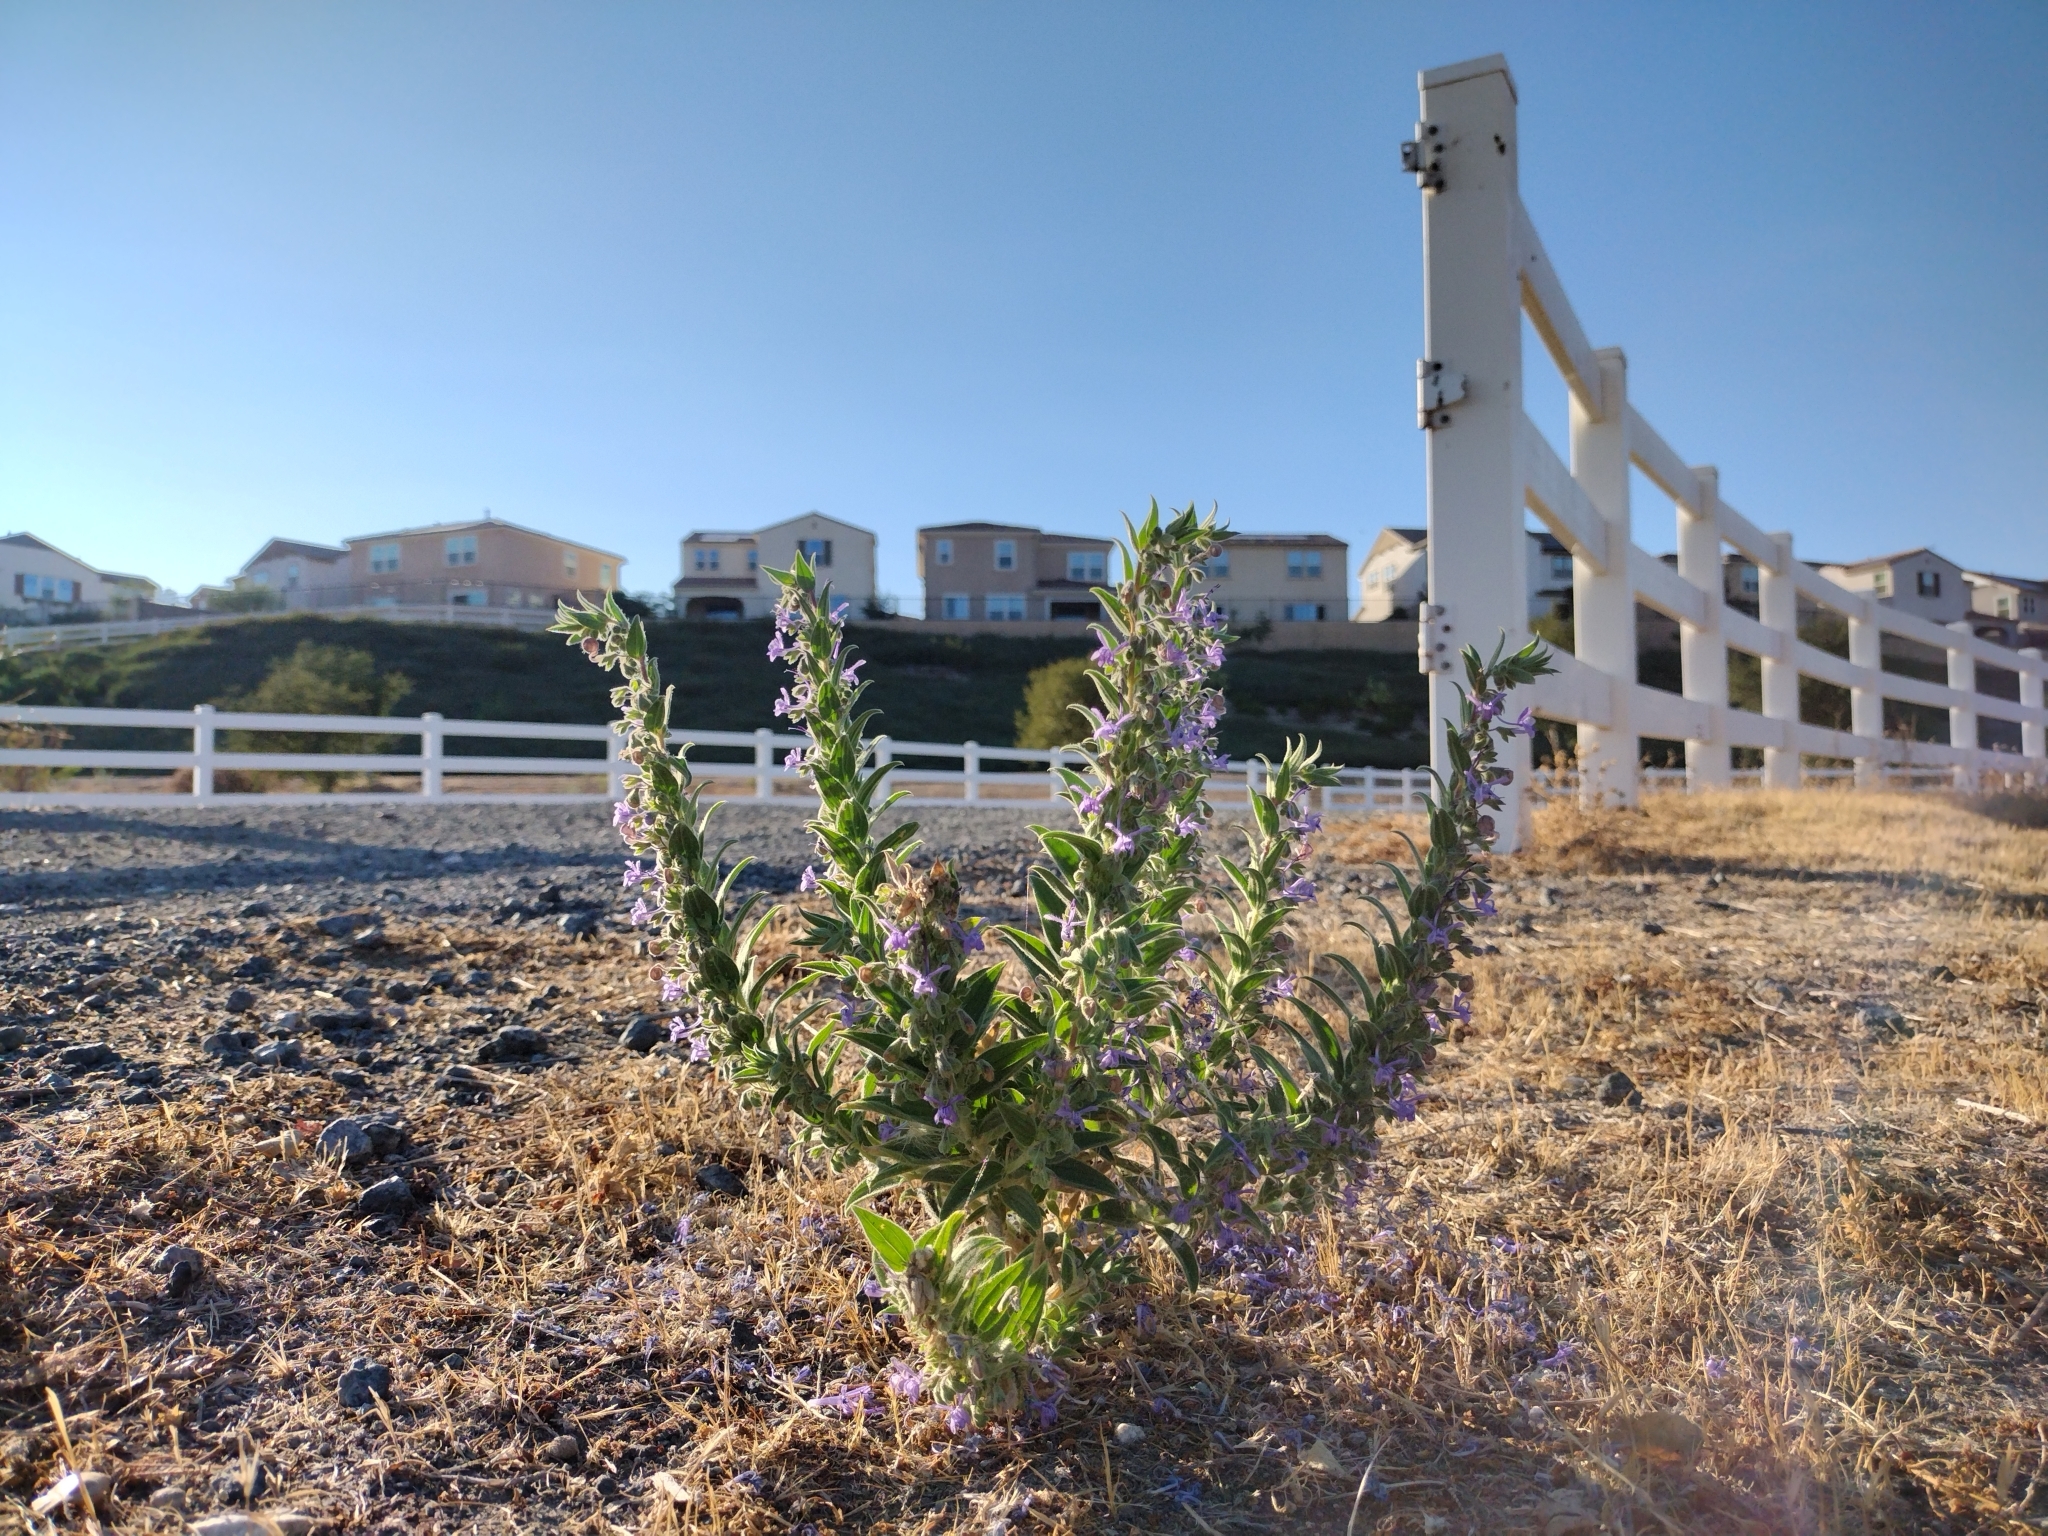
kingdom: Plantae
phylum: Tracheophyta
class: Magnoliopsida
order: Lamiales
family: Lamiaceae
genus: Trichostema
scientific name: Trichostema lanceolatum
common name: Vinegar-weed
